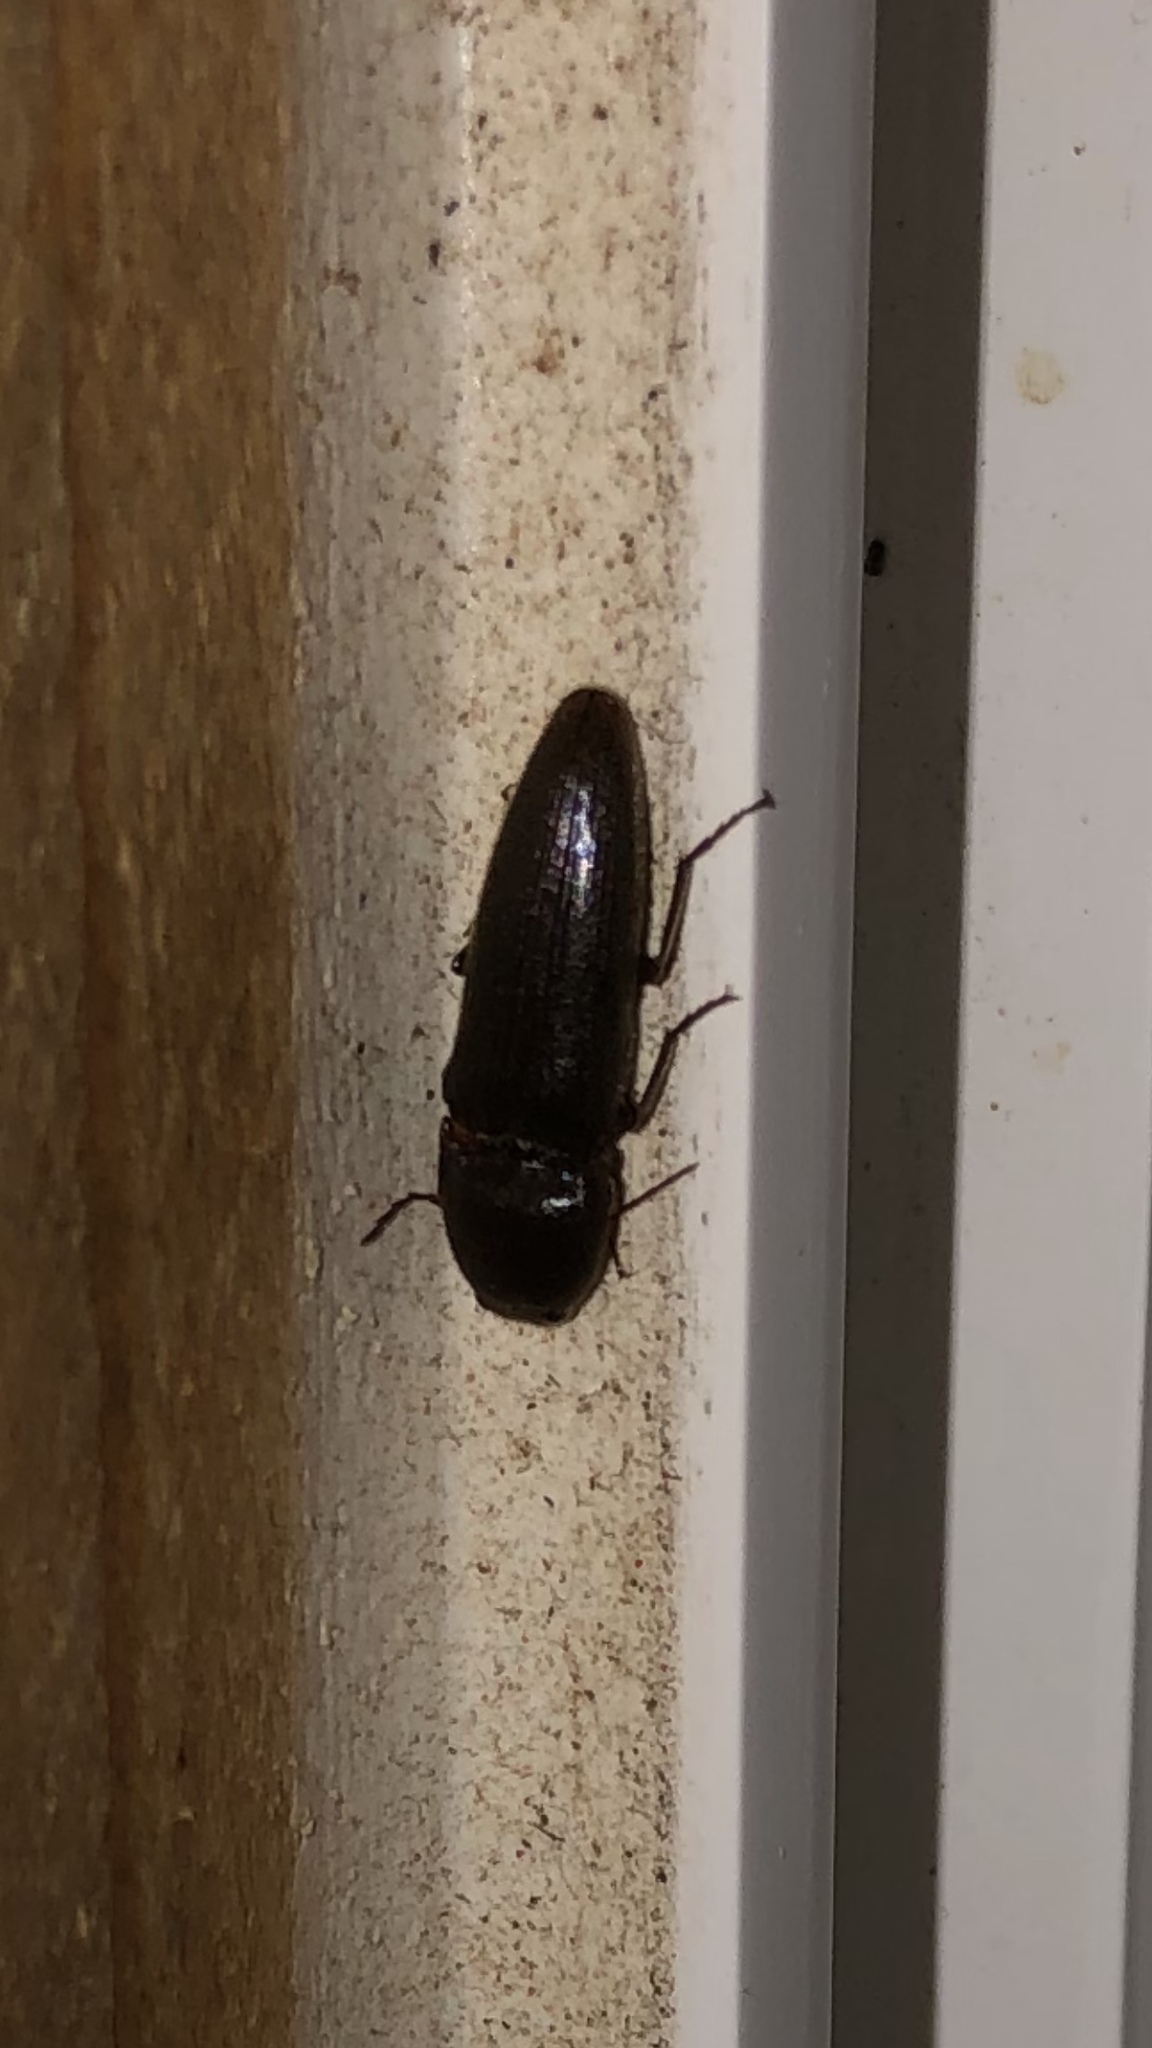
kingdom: Animalia
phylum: Arthropoda
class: Insecta
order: Coleoptera
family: Elateridae
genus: Melanotus
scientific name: Melanotus
